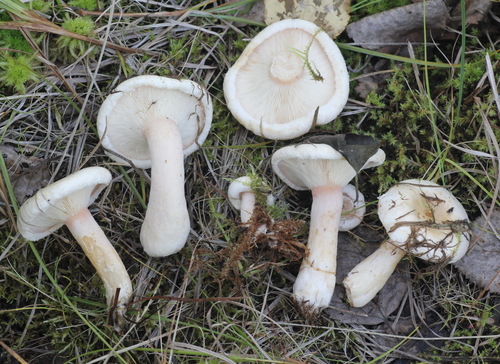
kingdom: Fungi
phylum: Basidiomycota
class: Agaricomycetes
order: Russulales
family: Russulaceae
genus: Lactarius
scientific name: Lactarius scoticus
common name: Hoary milkcap
